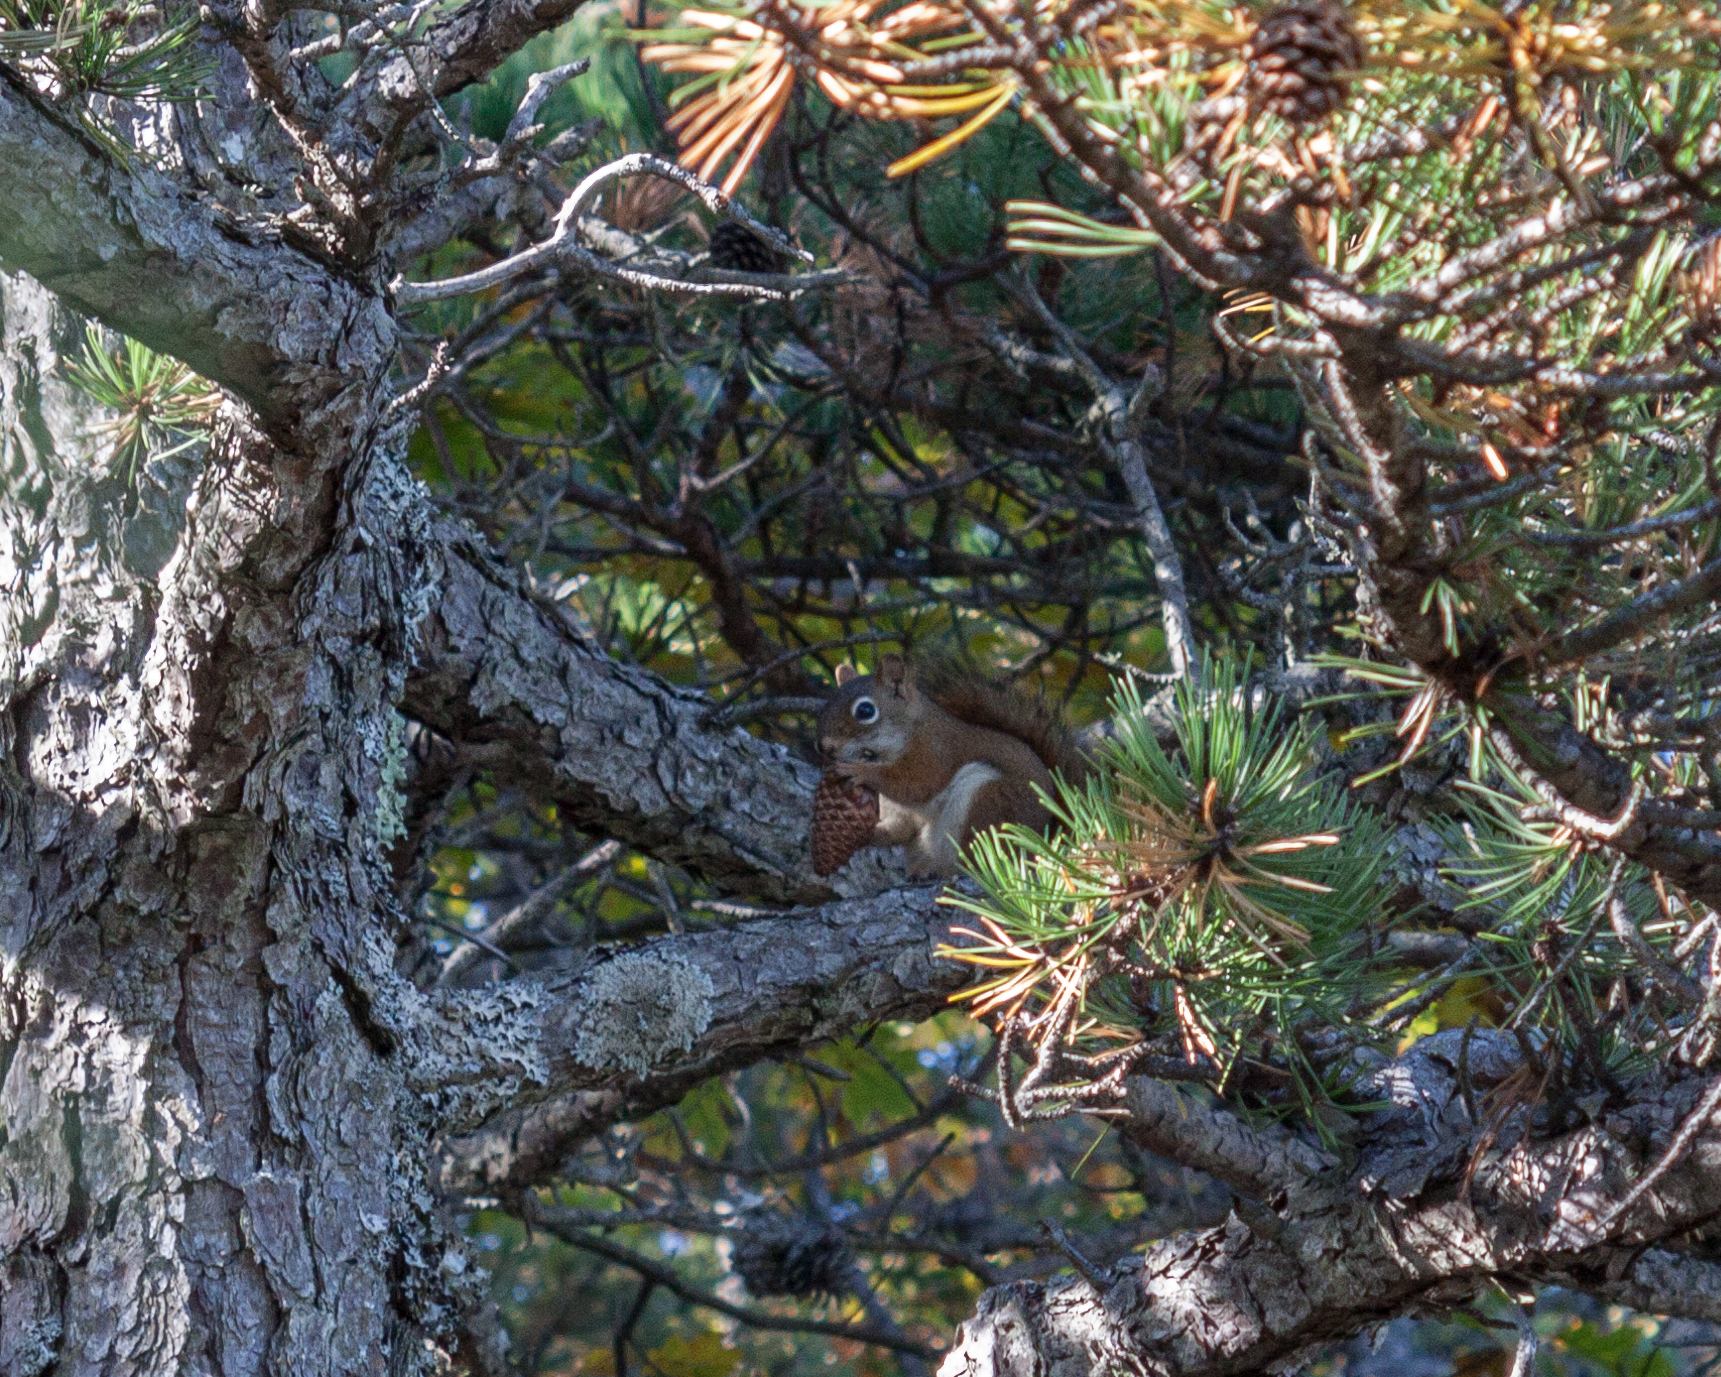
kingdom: Animalia
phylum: Chordata
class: Mammalia
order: Rodentia
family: Sciuridae
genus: Tamiasciurus
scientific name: Tamiasciurus hudsonicus
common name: Red squirrel
